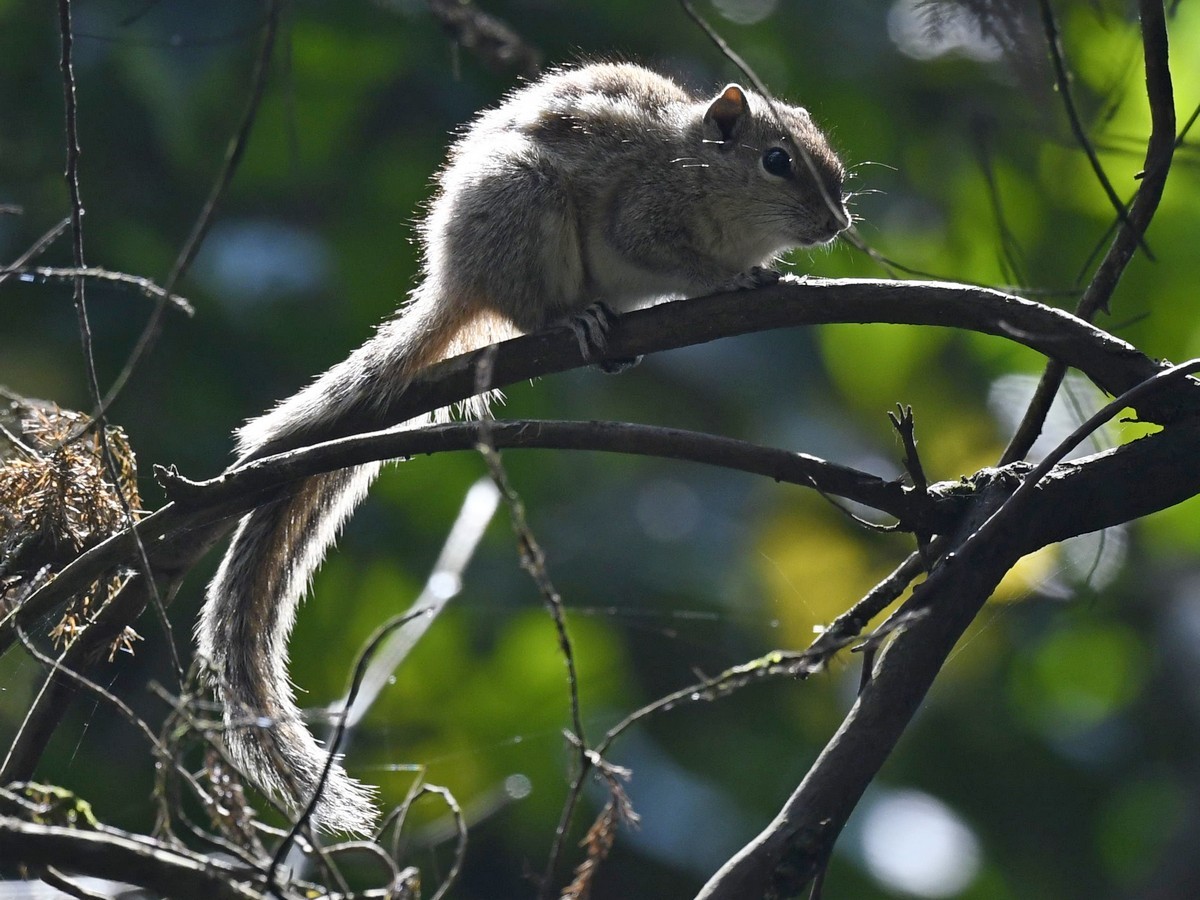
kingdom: Animalia
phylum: Chordata
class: Mammalia
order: Rodentia
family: Sciuridae
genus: Funambulus
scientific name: Funambulus palmarum
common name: Indian palm squirrel
